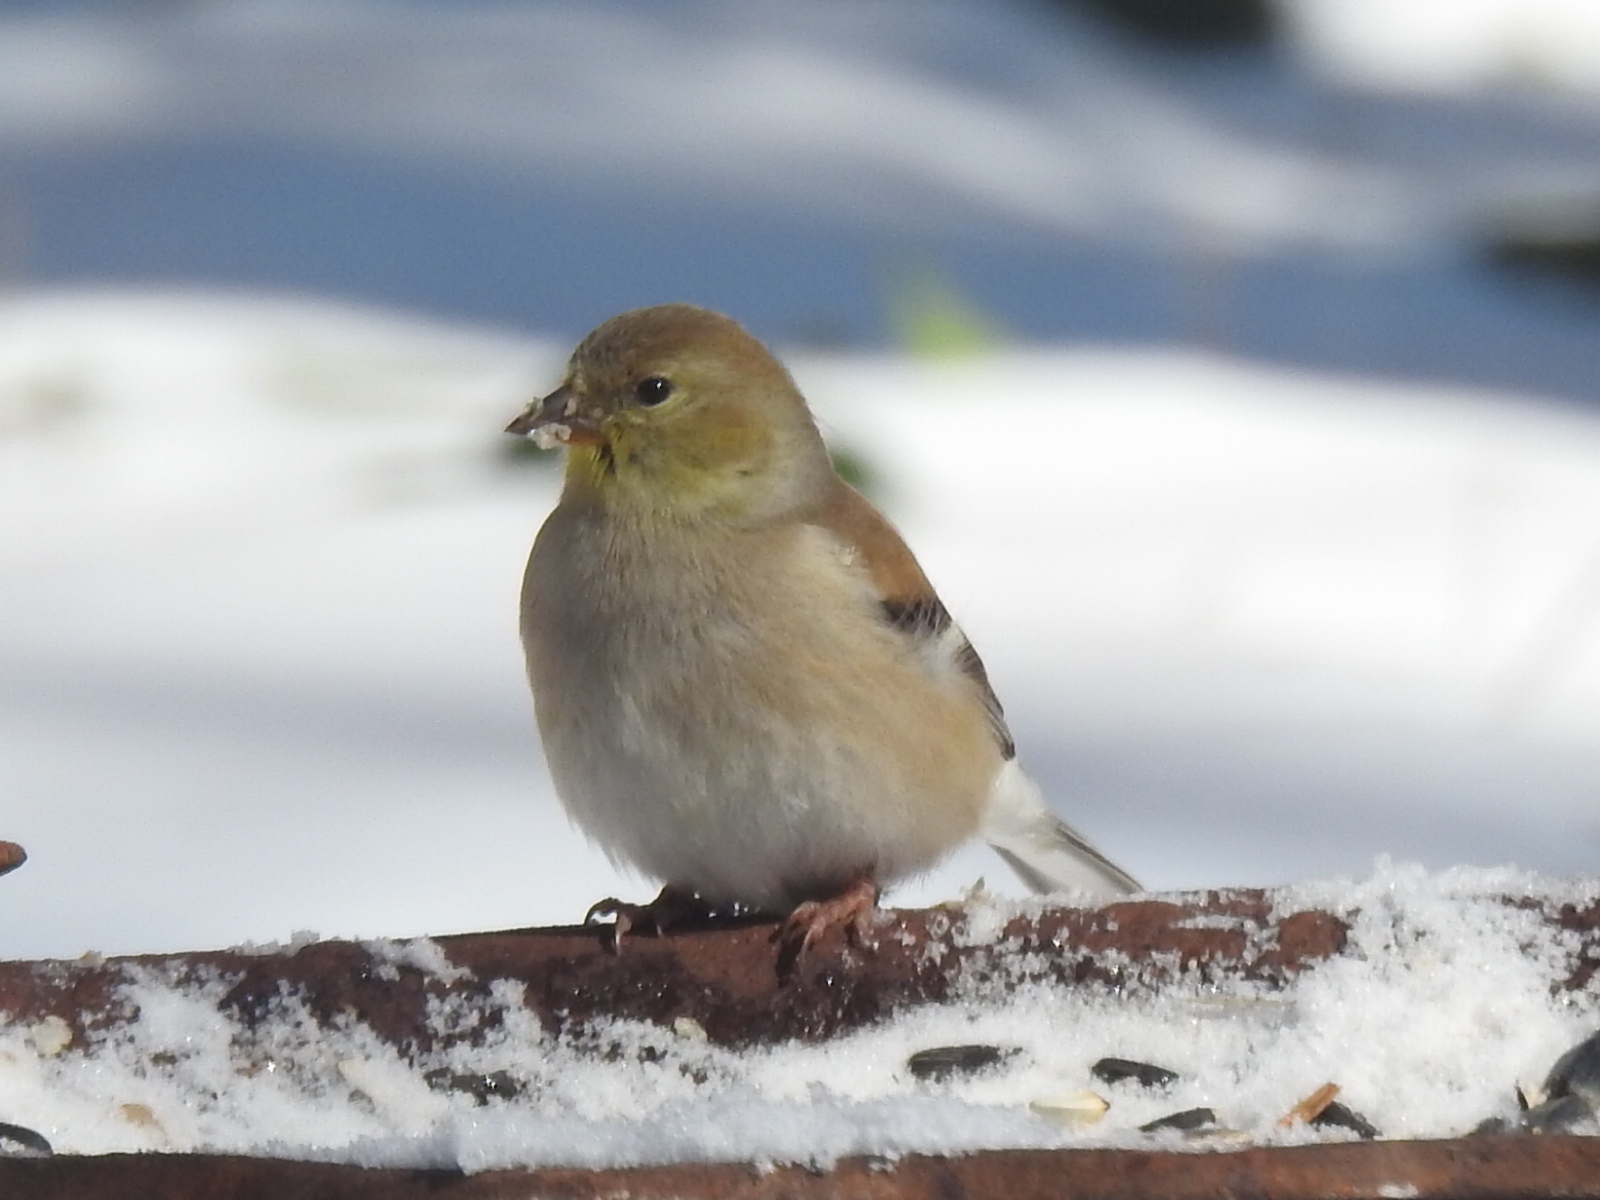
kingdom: Animalia
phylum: Chordata
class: Aves
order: Passeriformes
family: Fringillidae
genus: Spinus
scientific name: Spinus tristis
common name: American goldfinch
